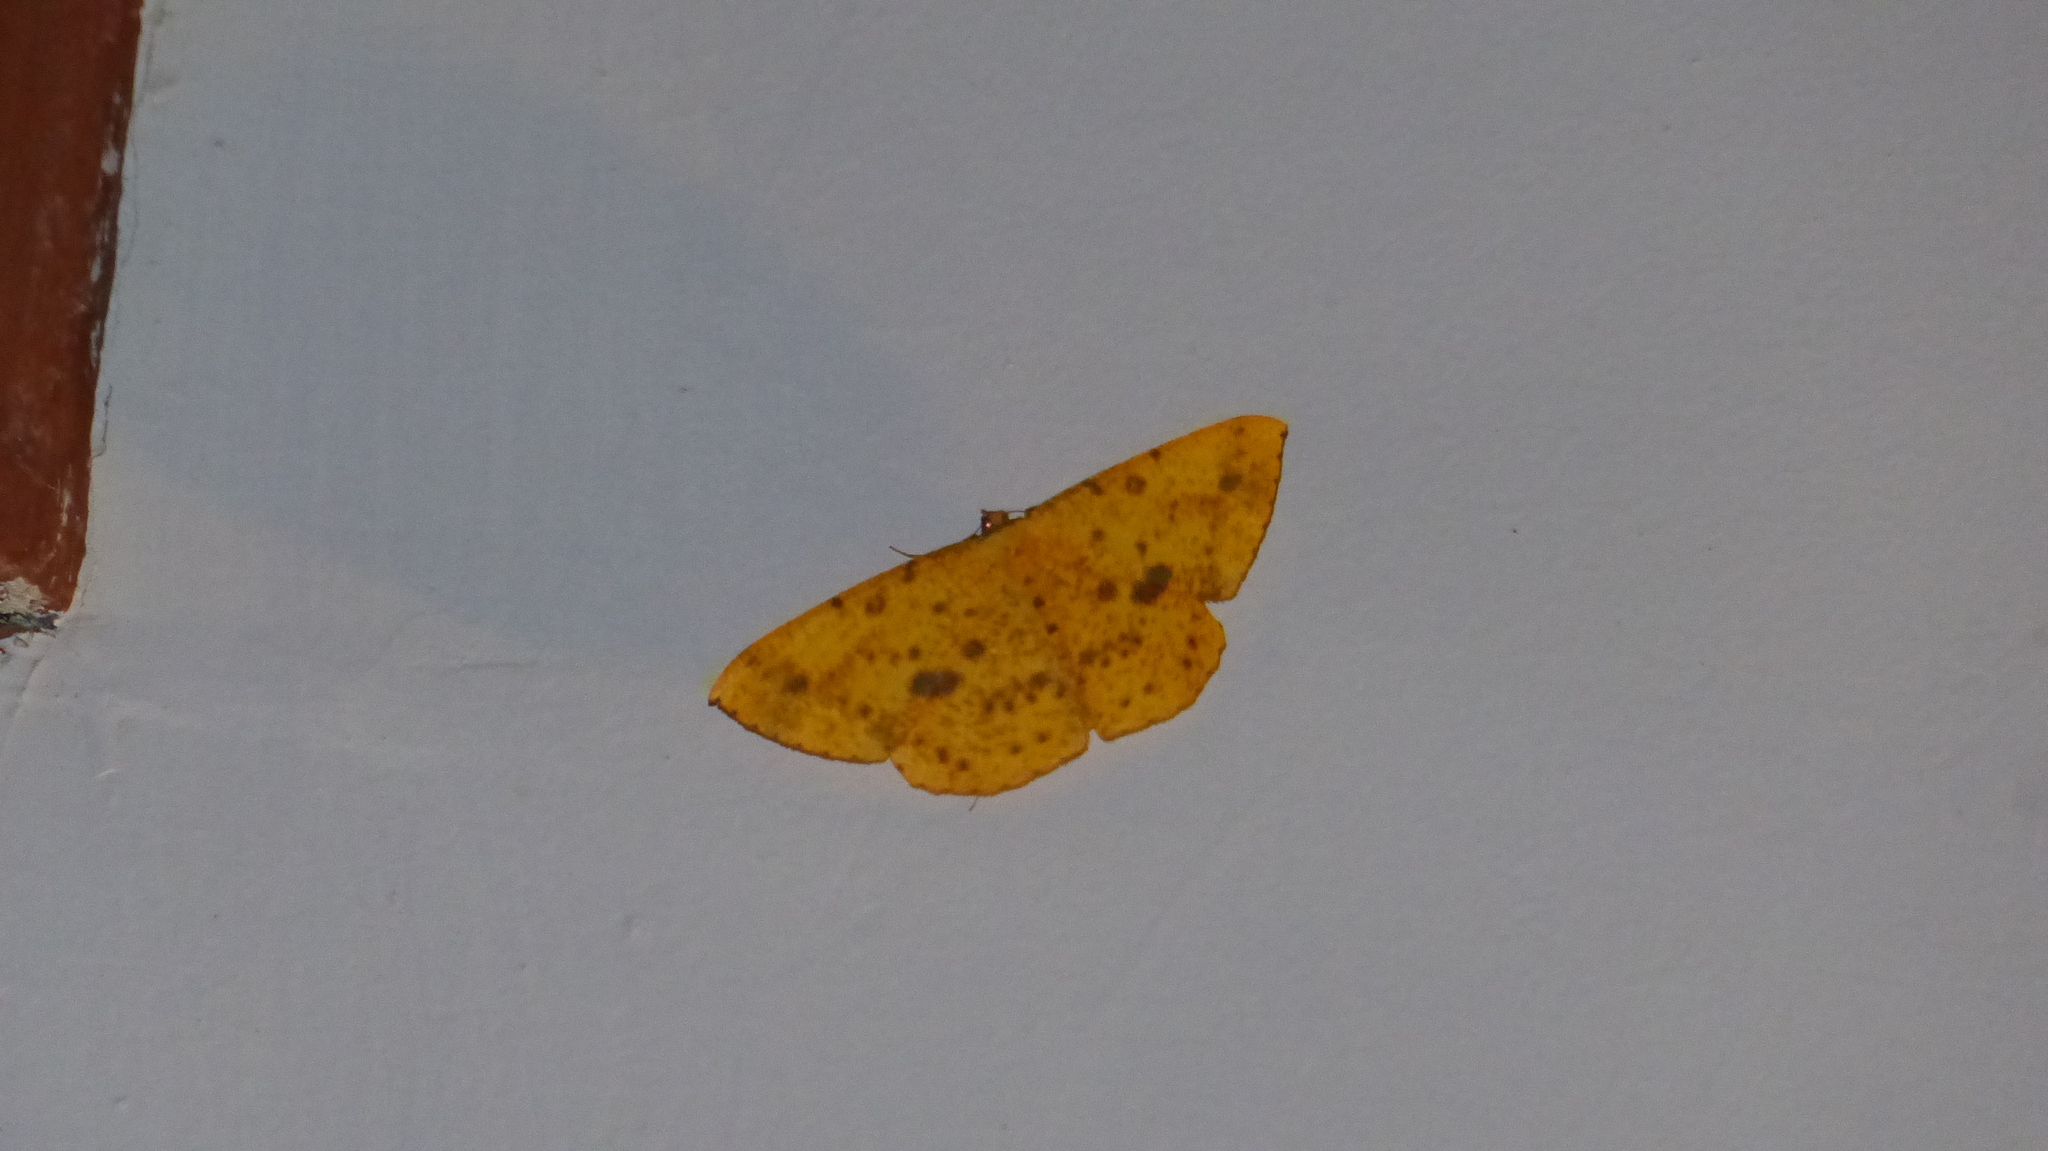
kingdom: Animalia
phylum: Arthropoda
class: Insecta
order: Lepidoptera
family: Geometridae
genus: Eumelea
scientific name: Eumelea ludovicata
